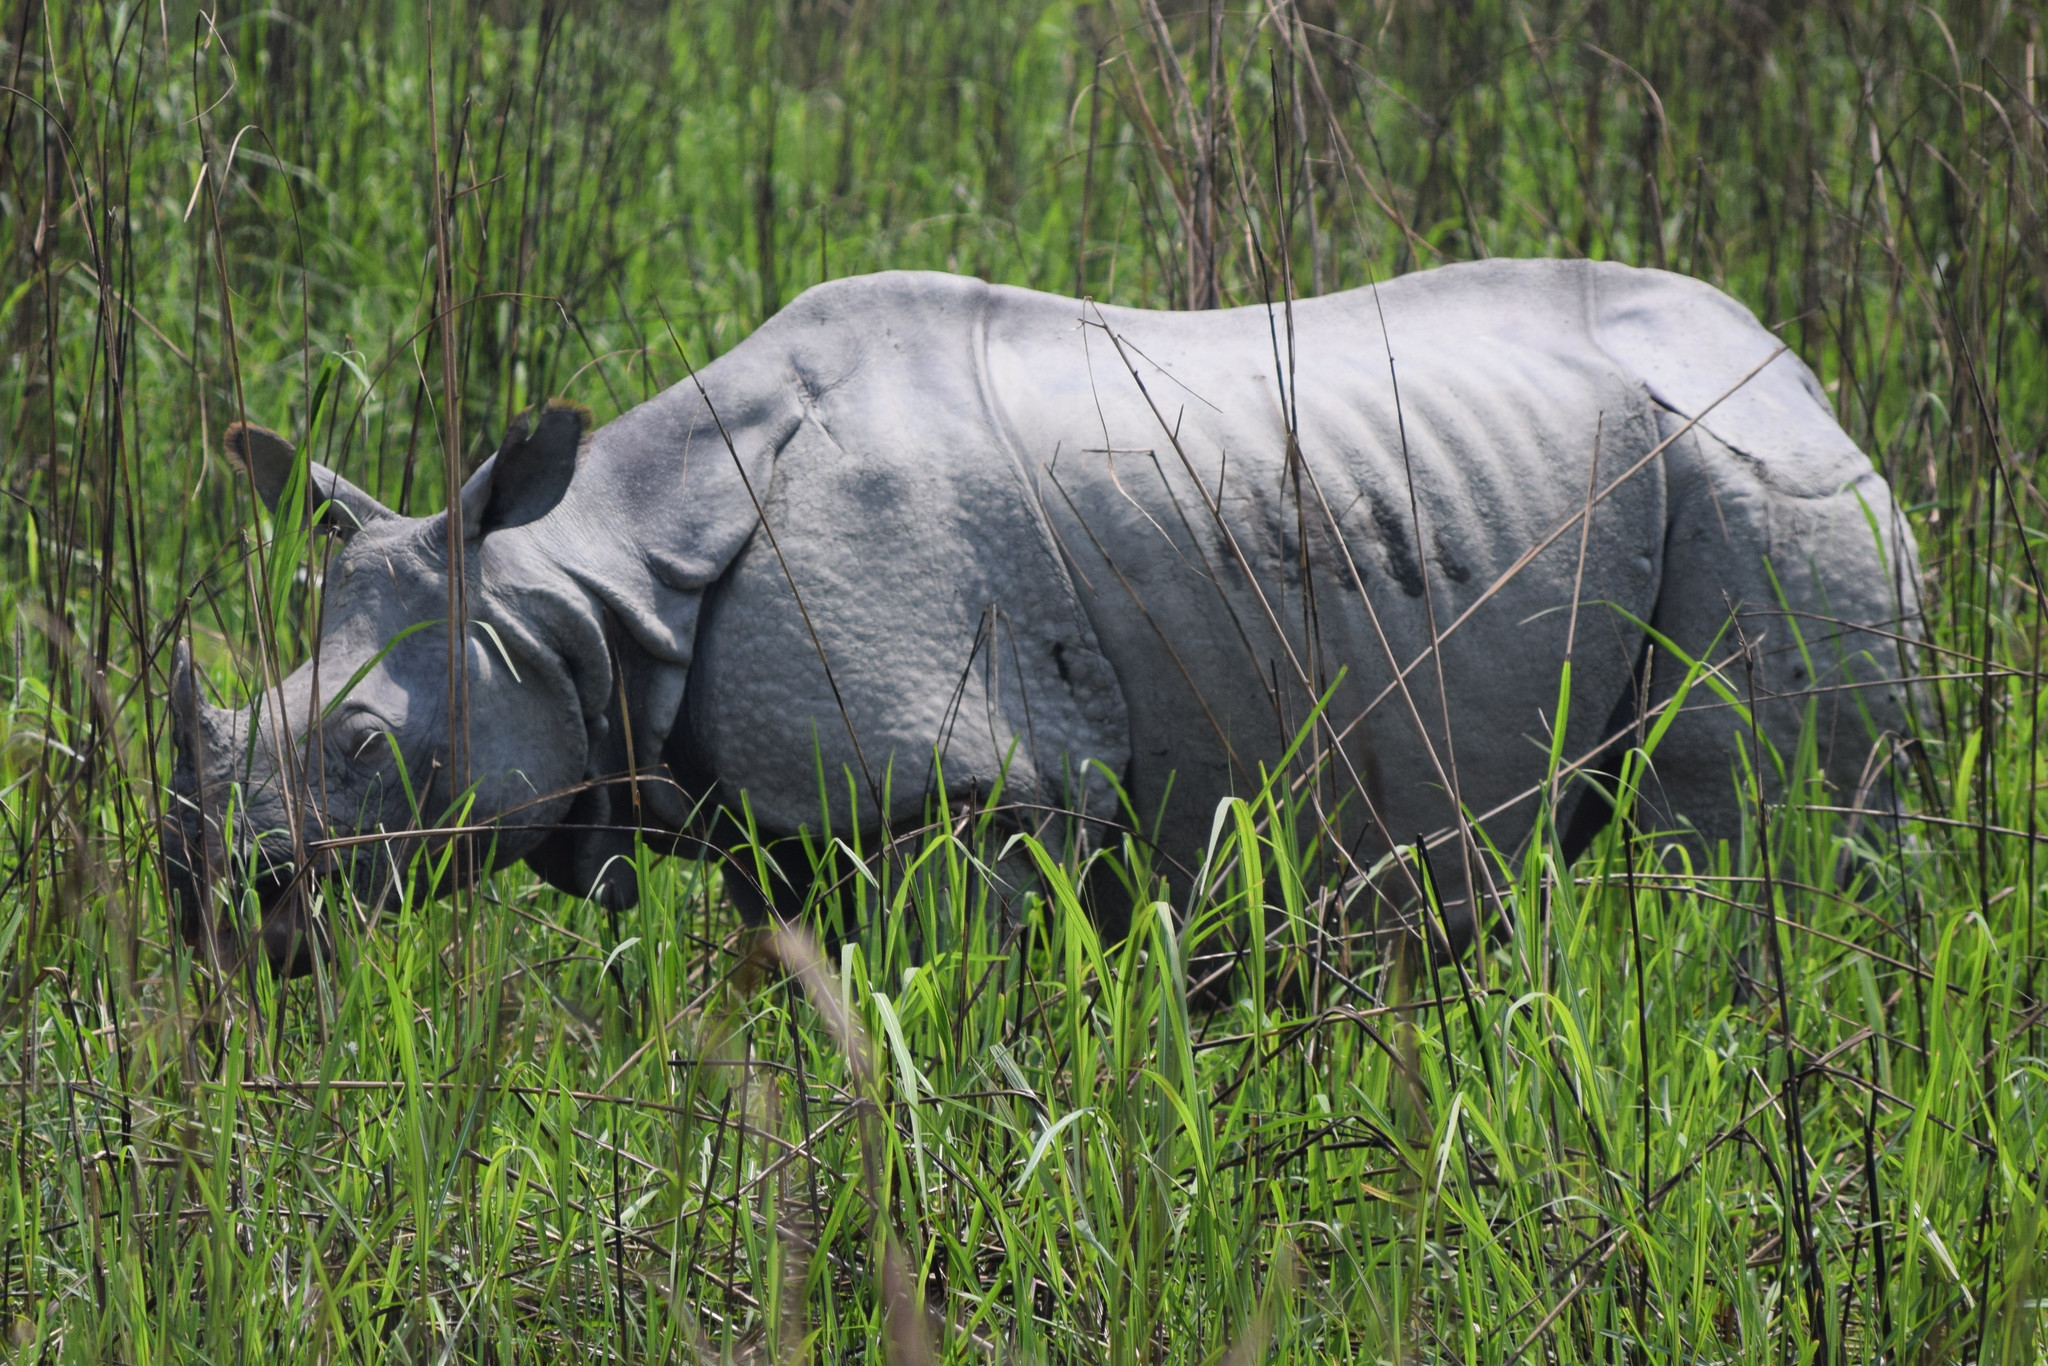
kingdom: Animalia
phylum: Chordata
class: Mammalia
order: Perissodactyla
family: Rhinocerotidae
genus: Rhinoceros
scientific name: Rhinoceros unicornis
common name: Indian rhinoceros
